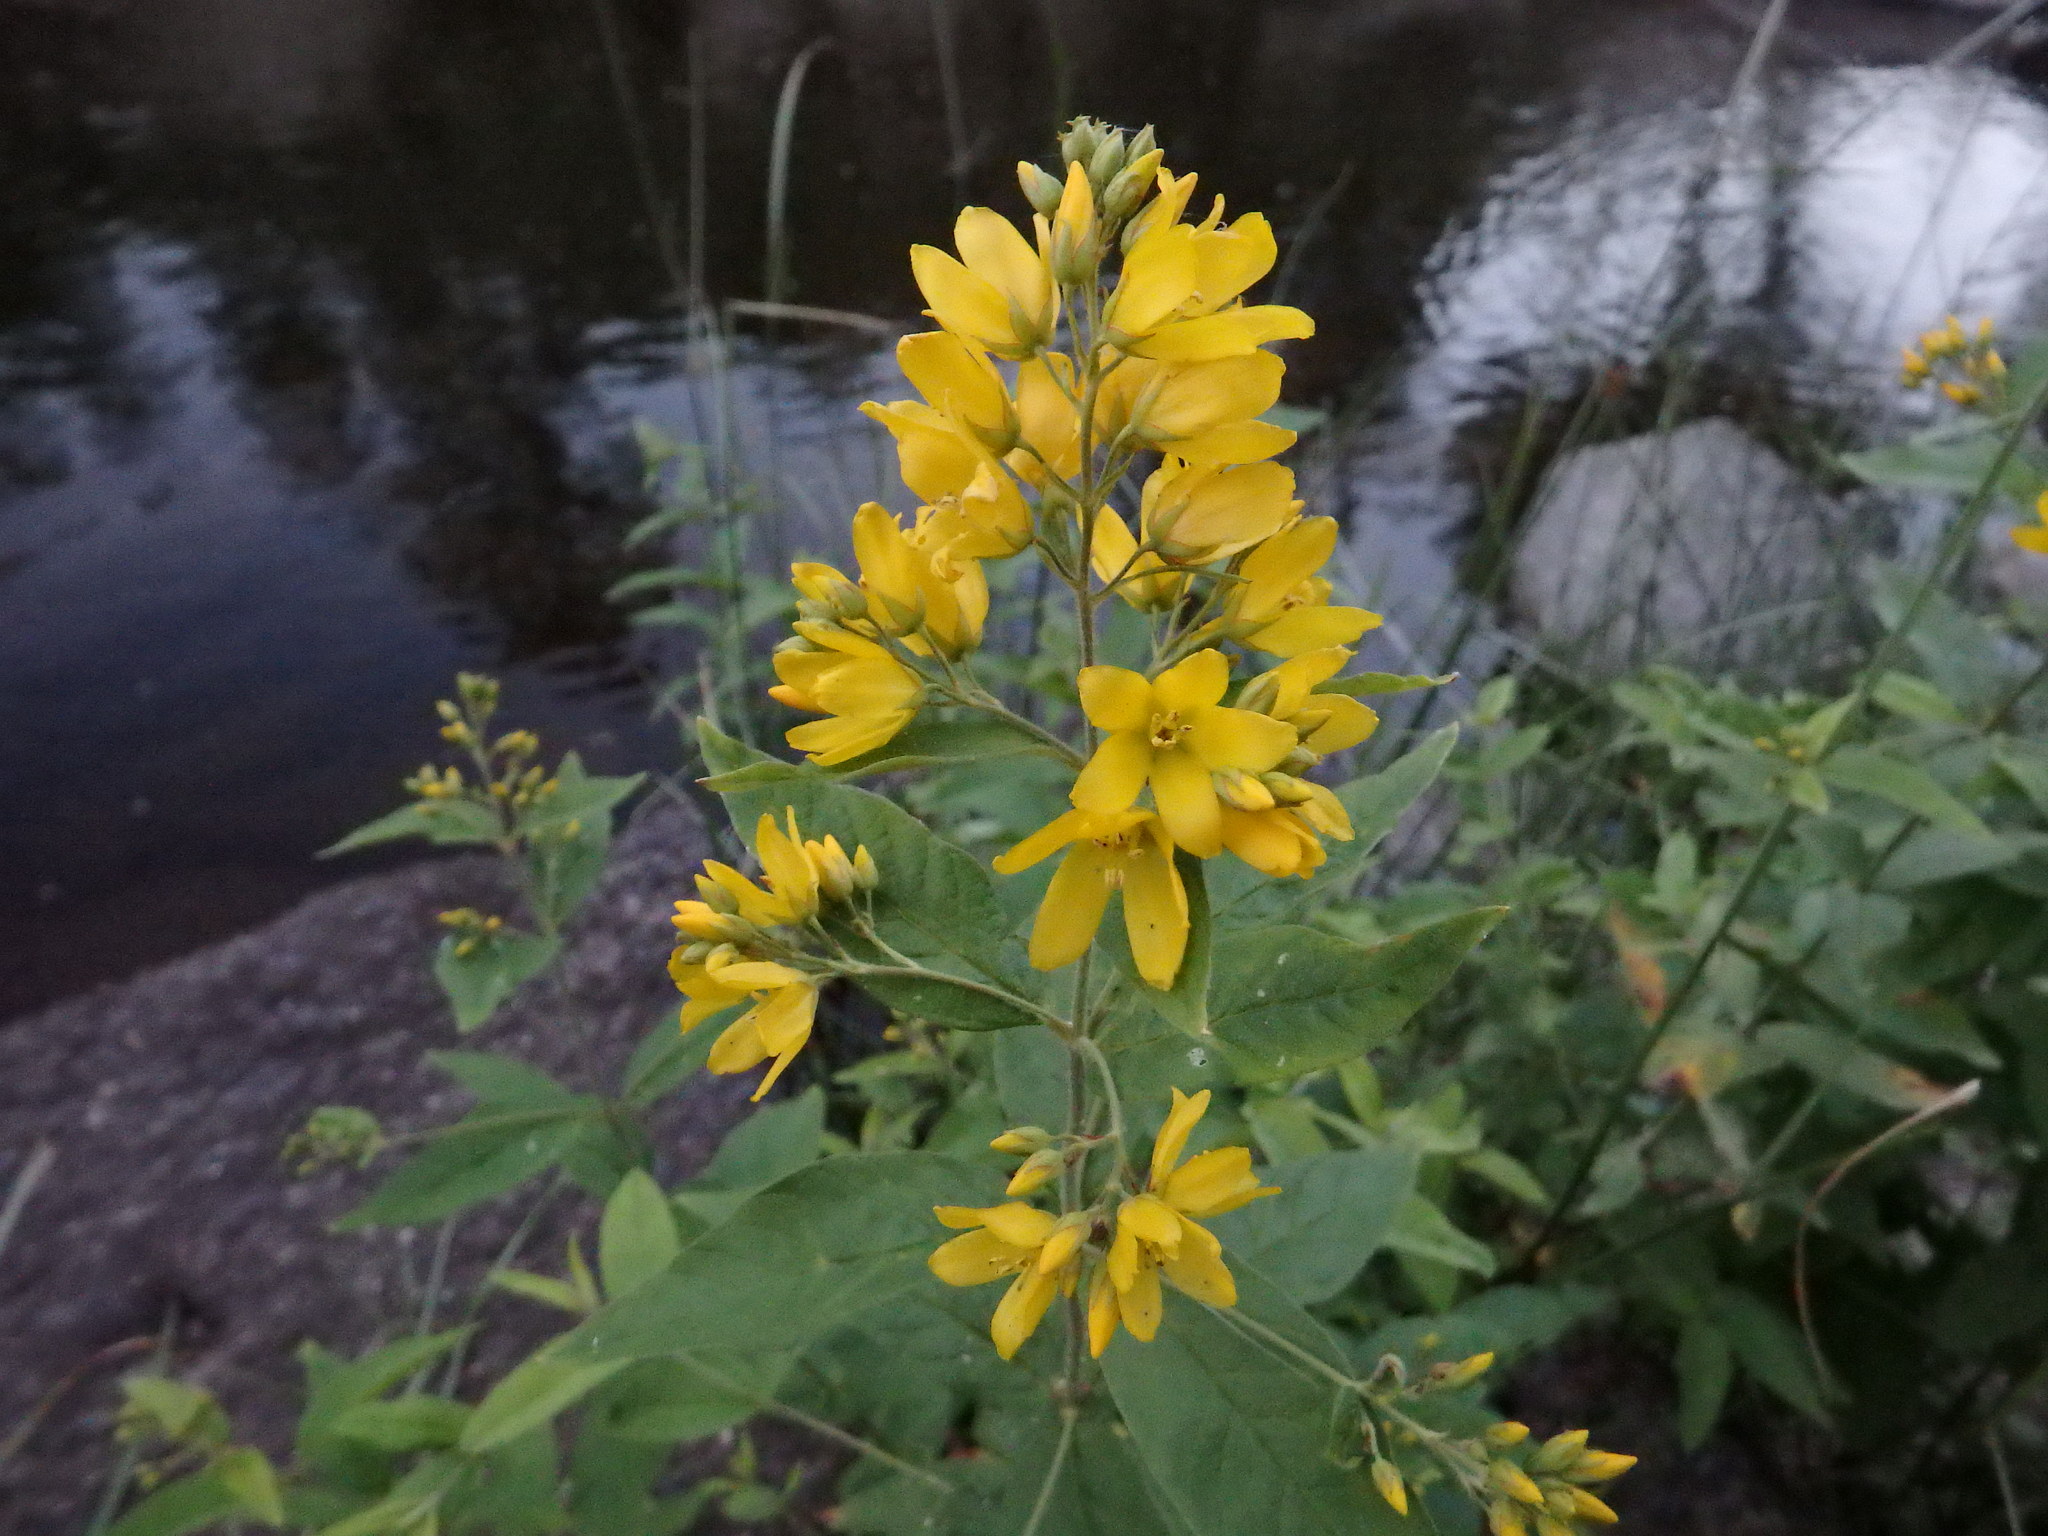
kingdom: Plantae
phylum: Tracheophyta
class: Magnoliopsida
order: Ericales
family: Primulaceae
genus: Lysimachia
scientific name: Lysimachia vulgaris
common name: Yellow loosestrife
